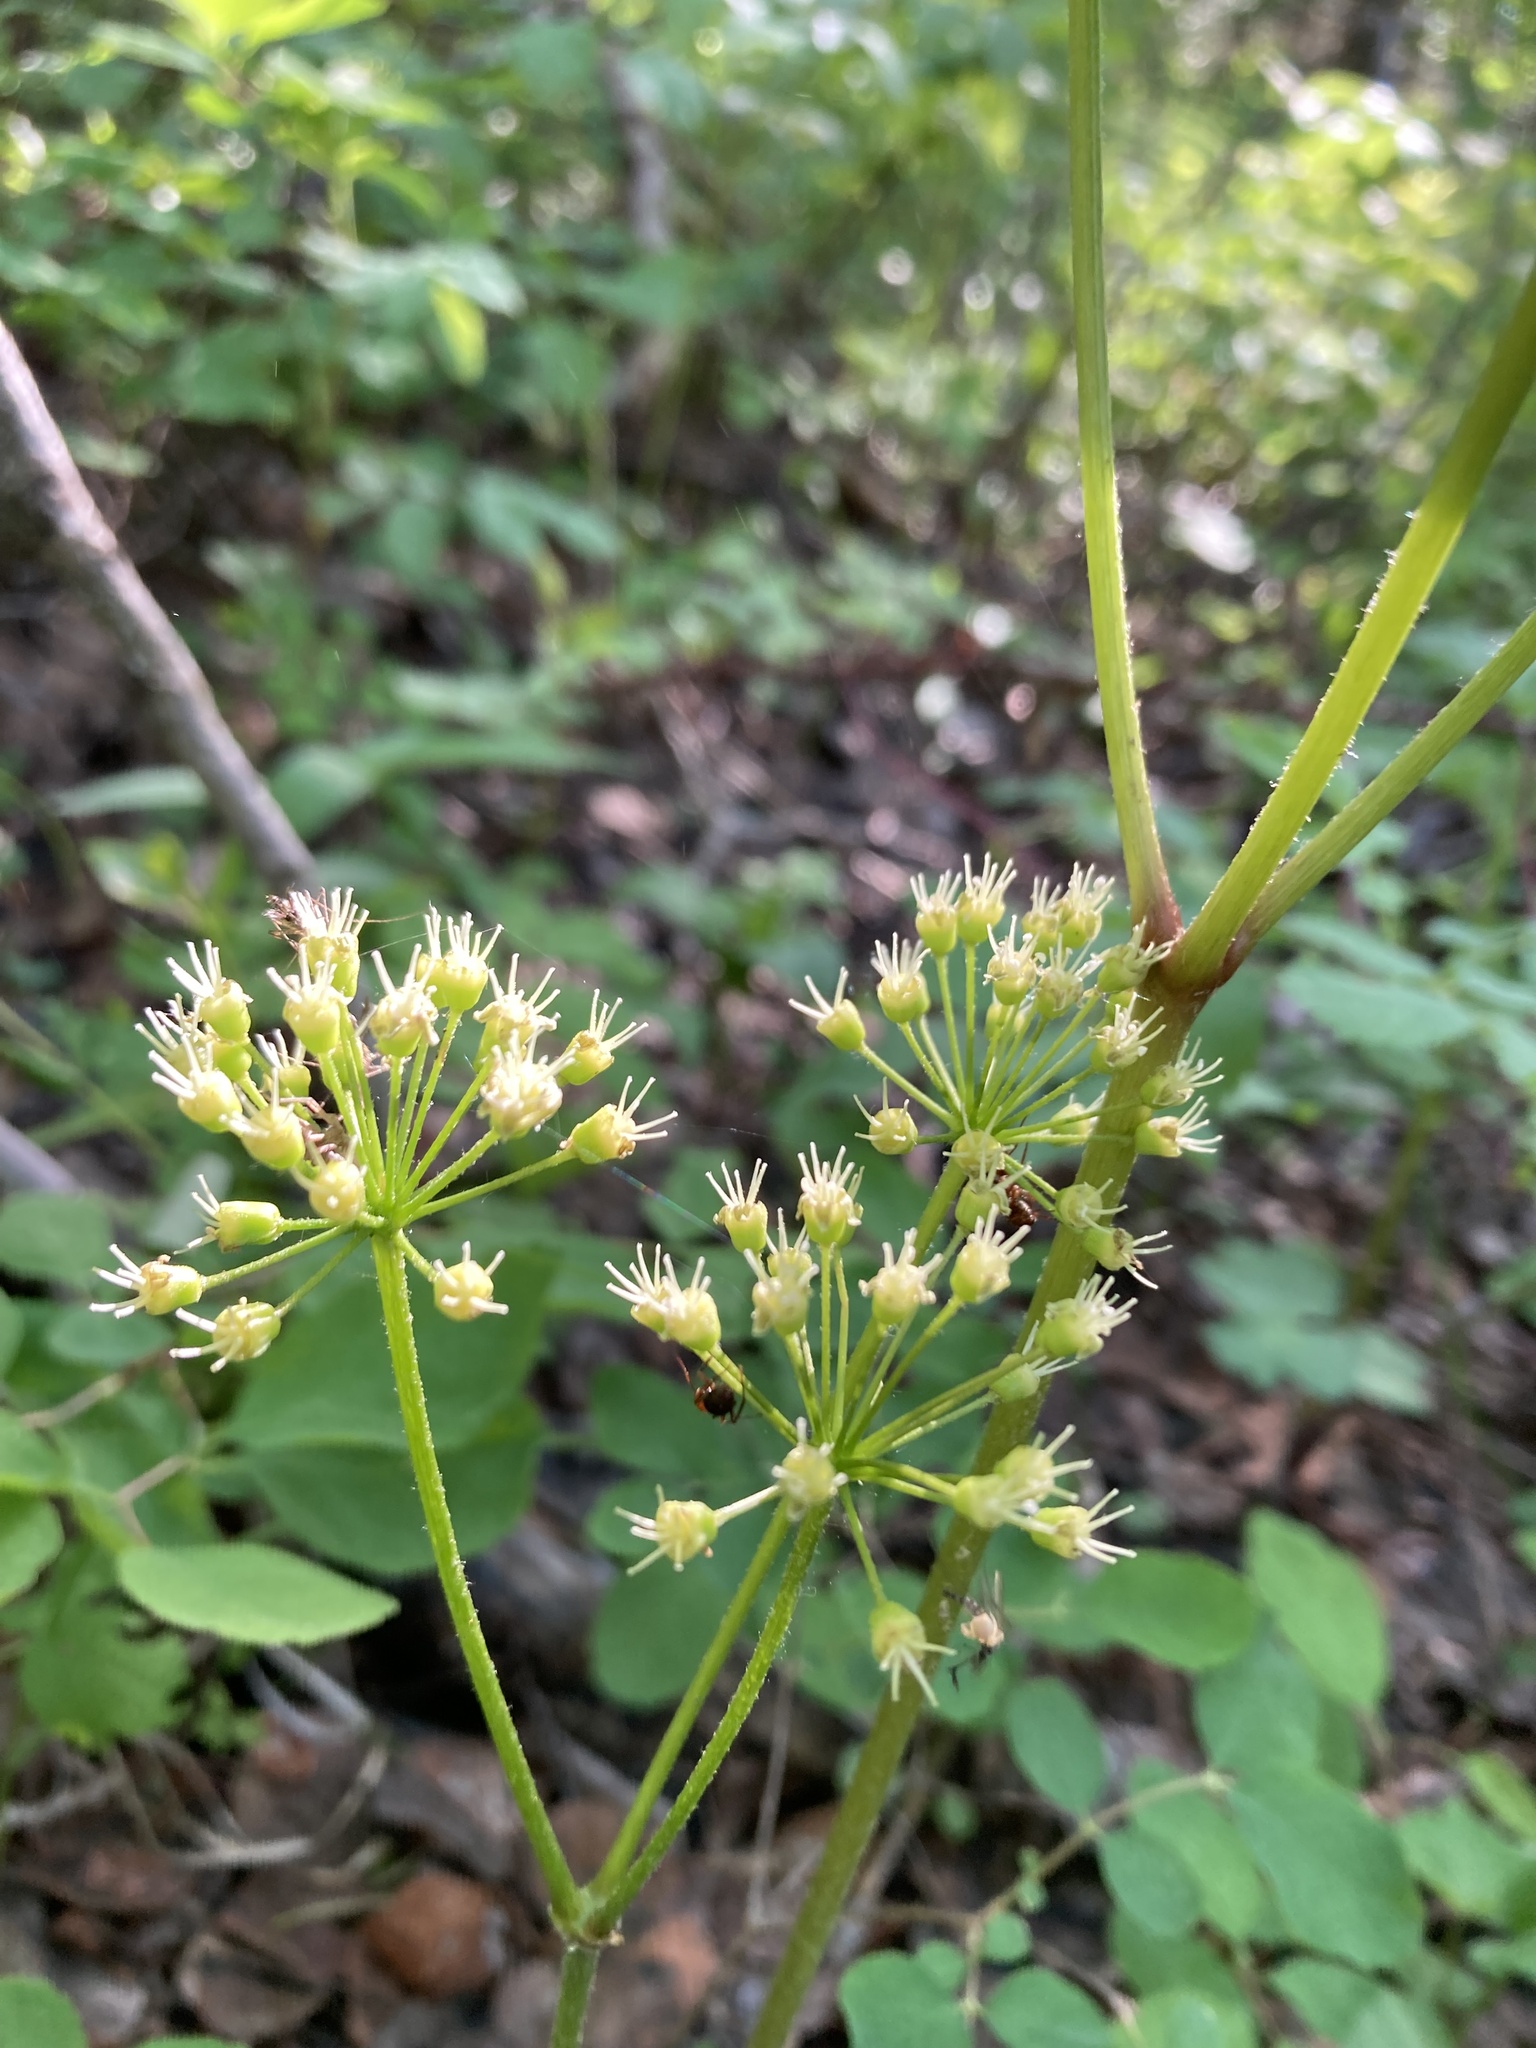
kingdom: Plantae
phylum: Tracheophyta
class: Magnoliopsida
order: Apiales
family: Araliaceae
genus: Aralia
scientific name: Aralia nudicaulis
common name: Wild sarsaparilla
